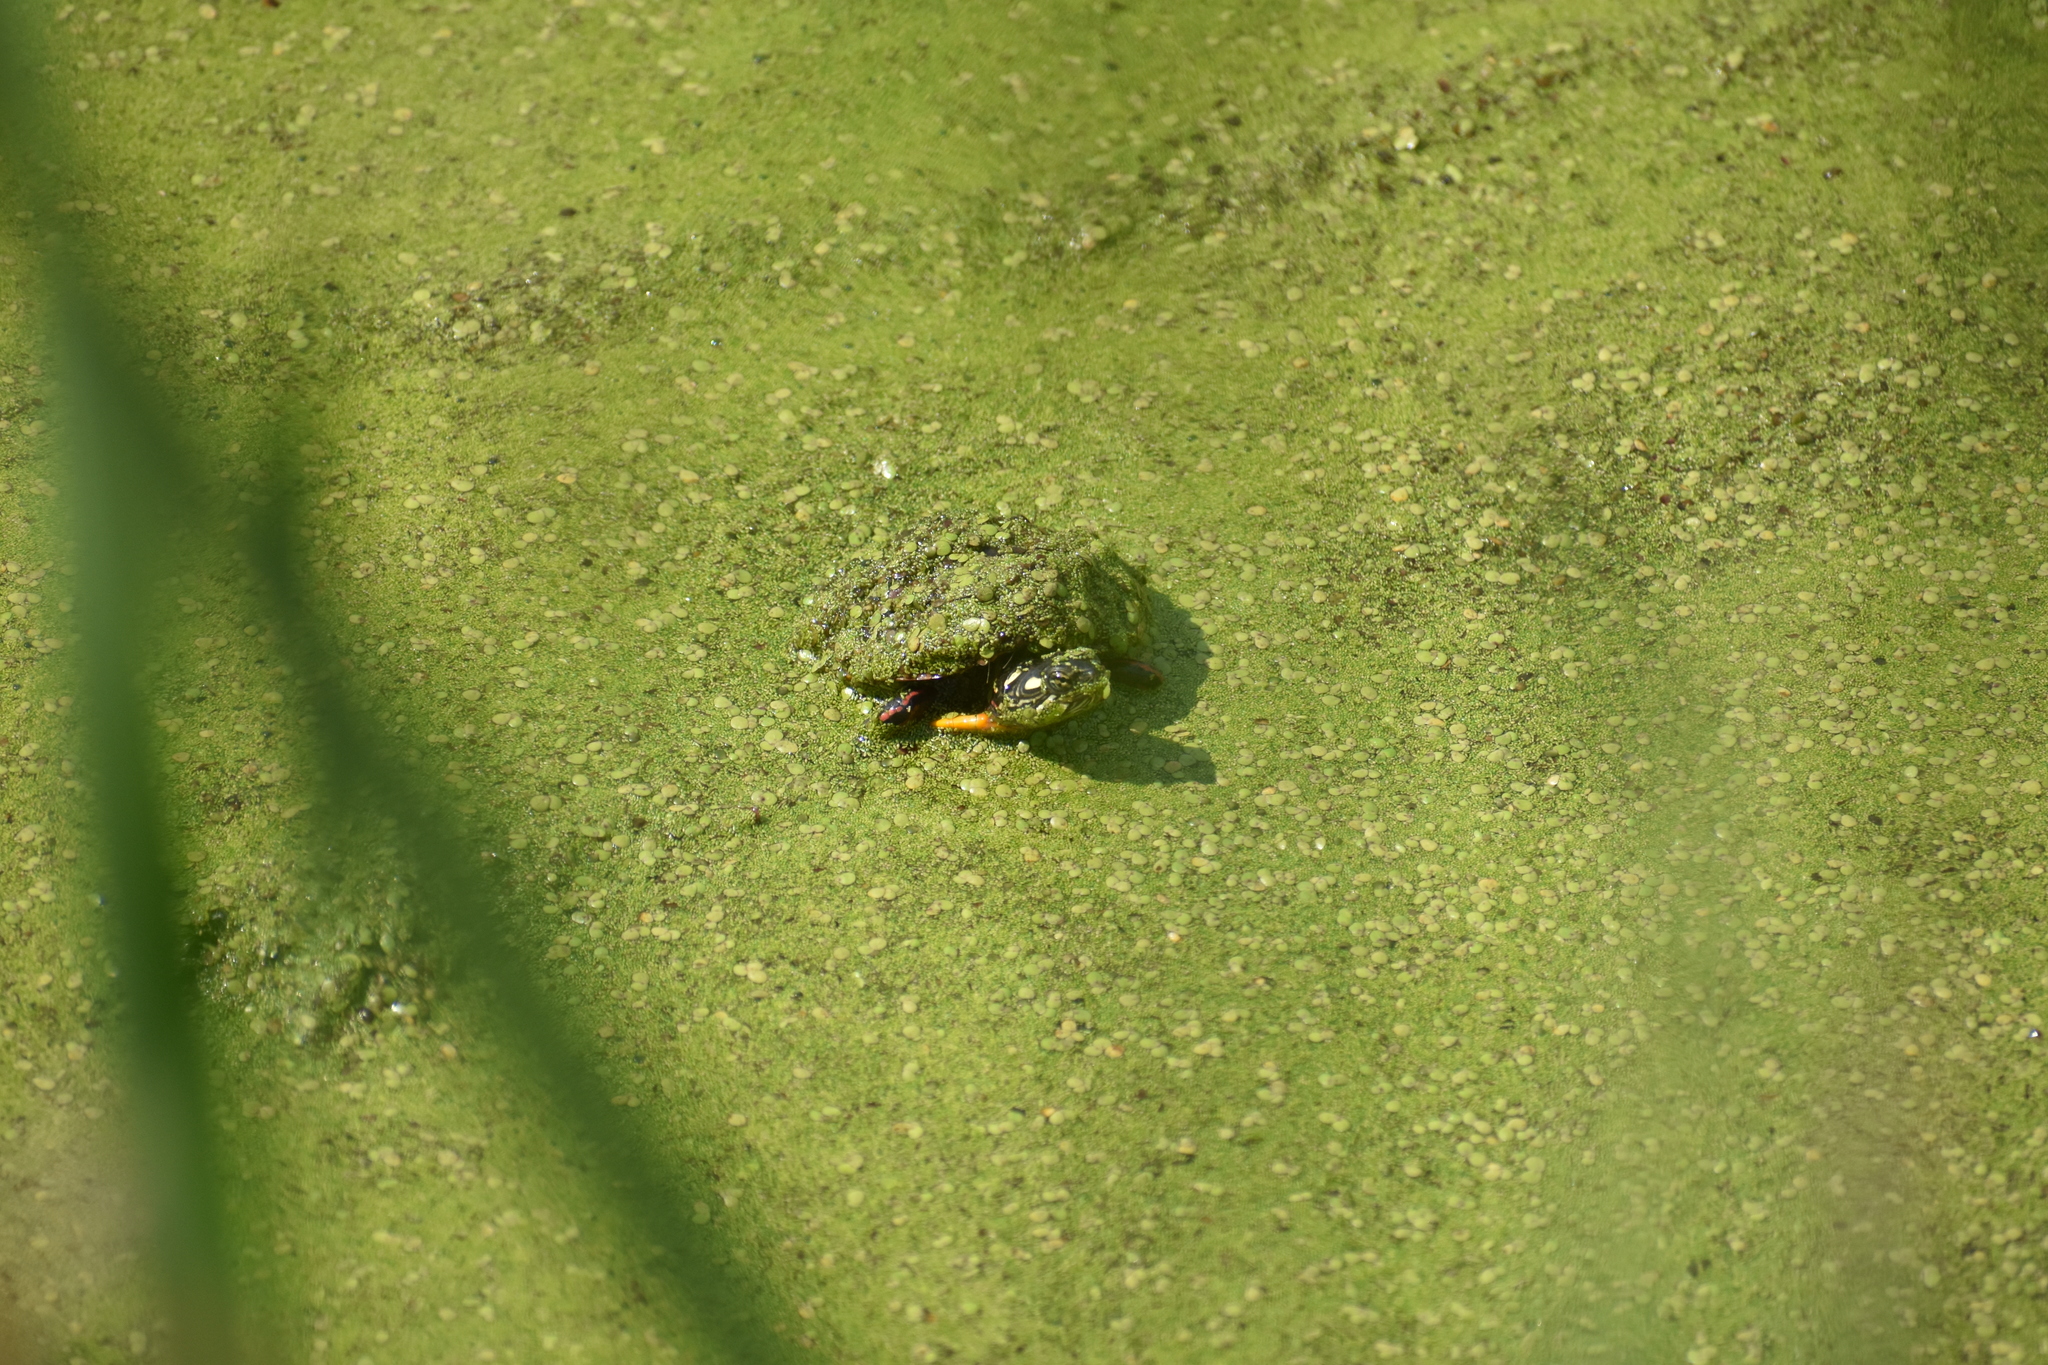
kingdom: Animalia
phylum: Chordata
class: Testudines
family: Emydidae
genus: Chrysemys
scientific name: Chrysemys picta
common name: Painted turtle
